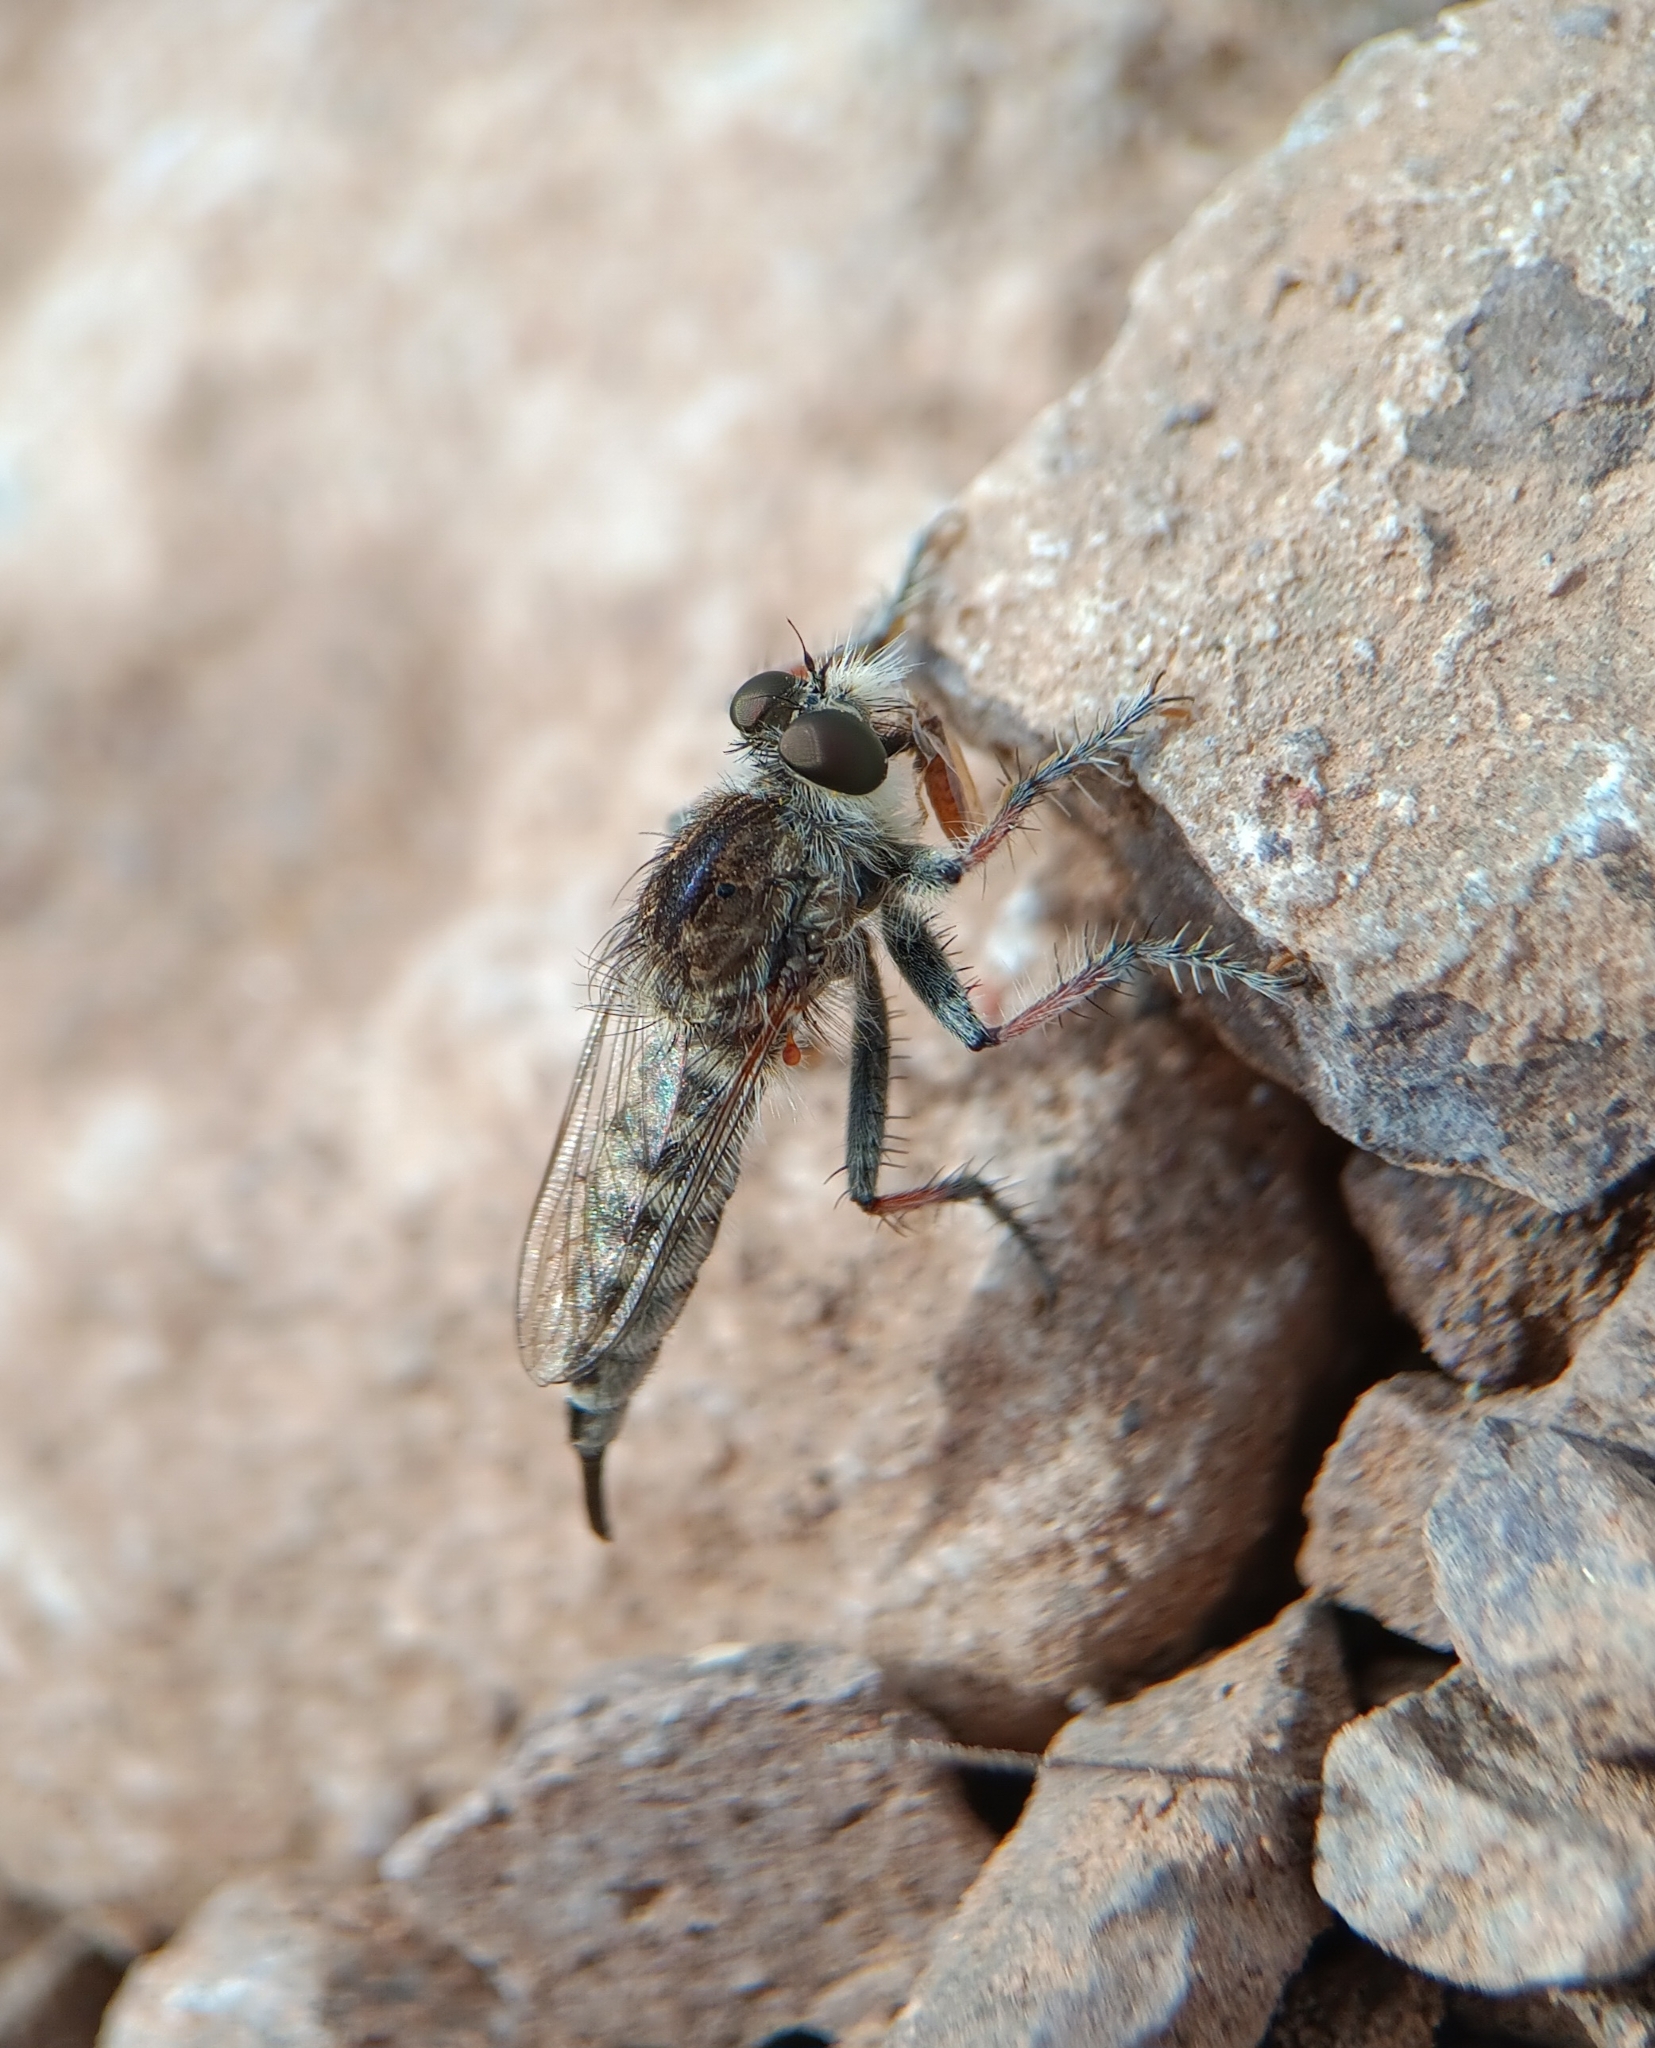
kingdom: Animalia
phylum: Arthropoda
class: Insecta
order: Diptera
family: Asilidae
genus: Efferia
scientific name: Efferia
